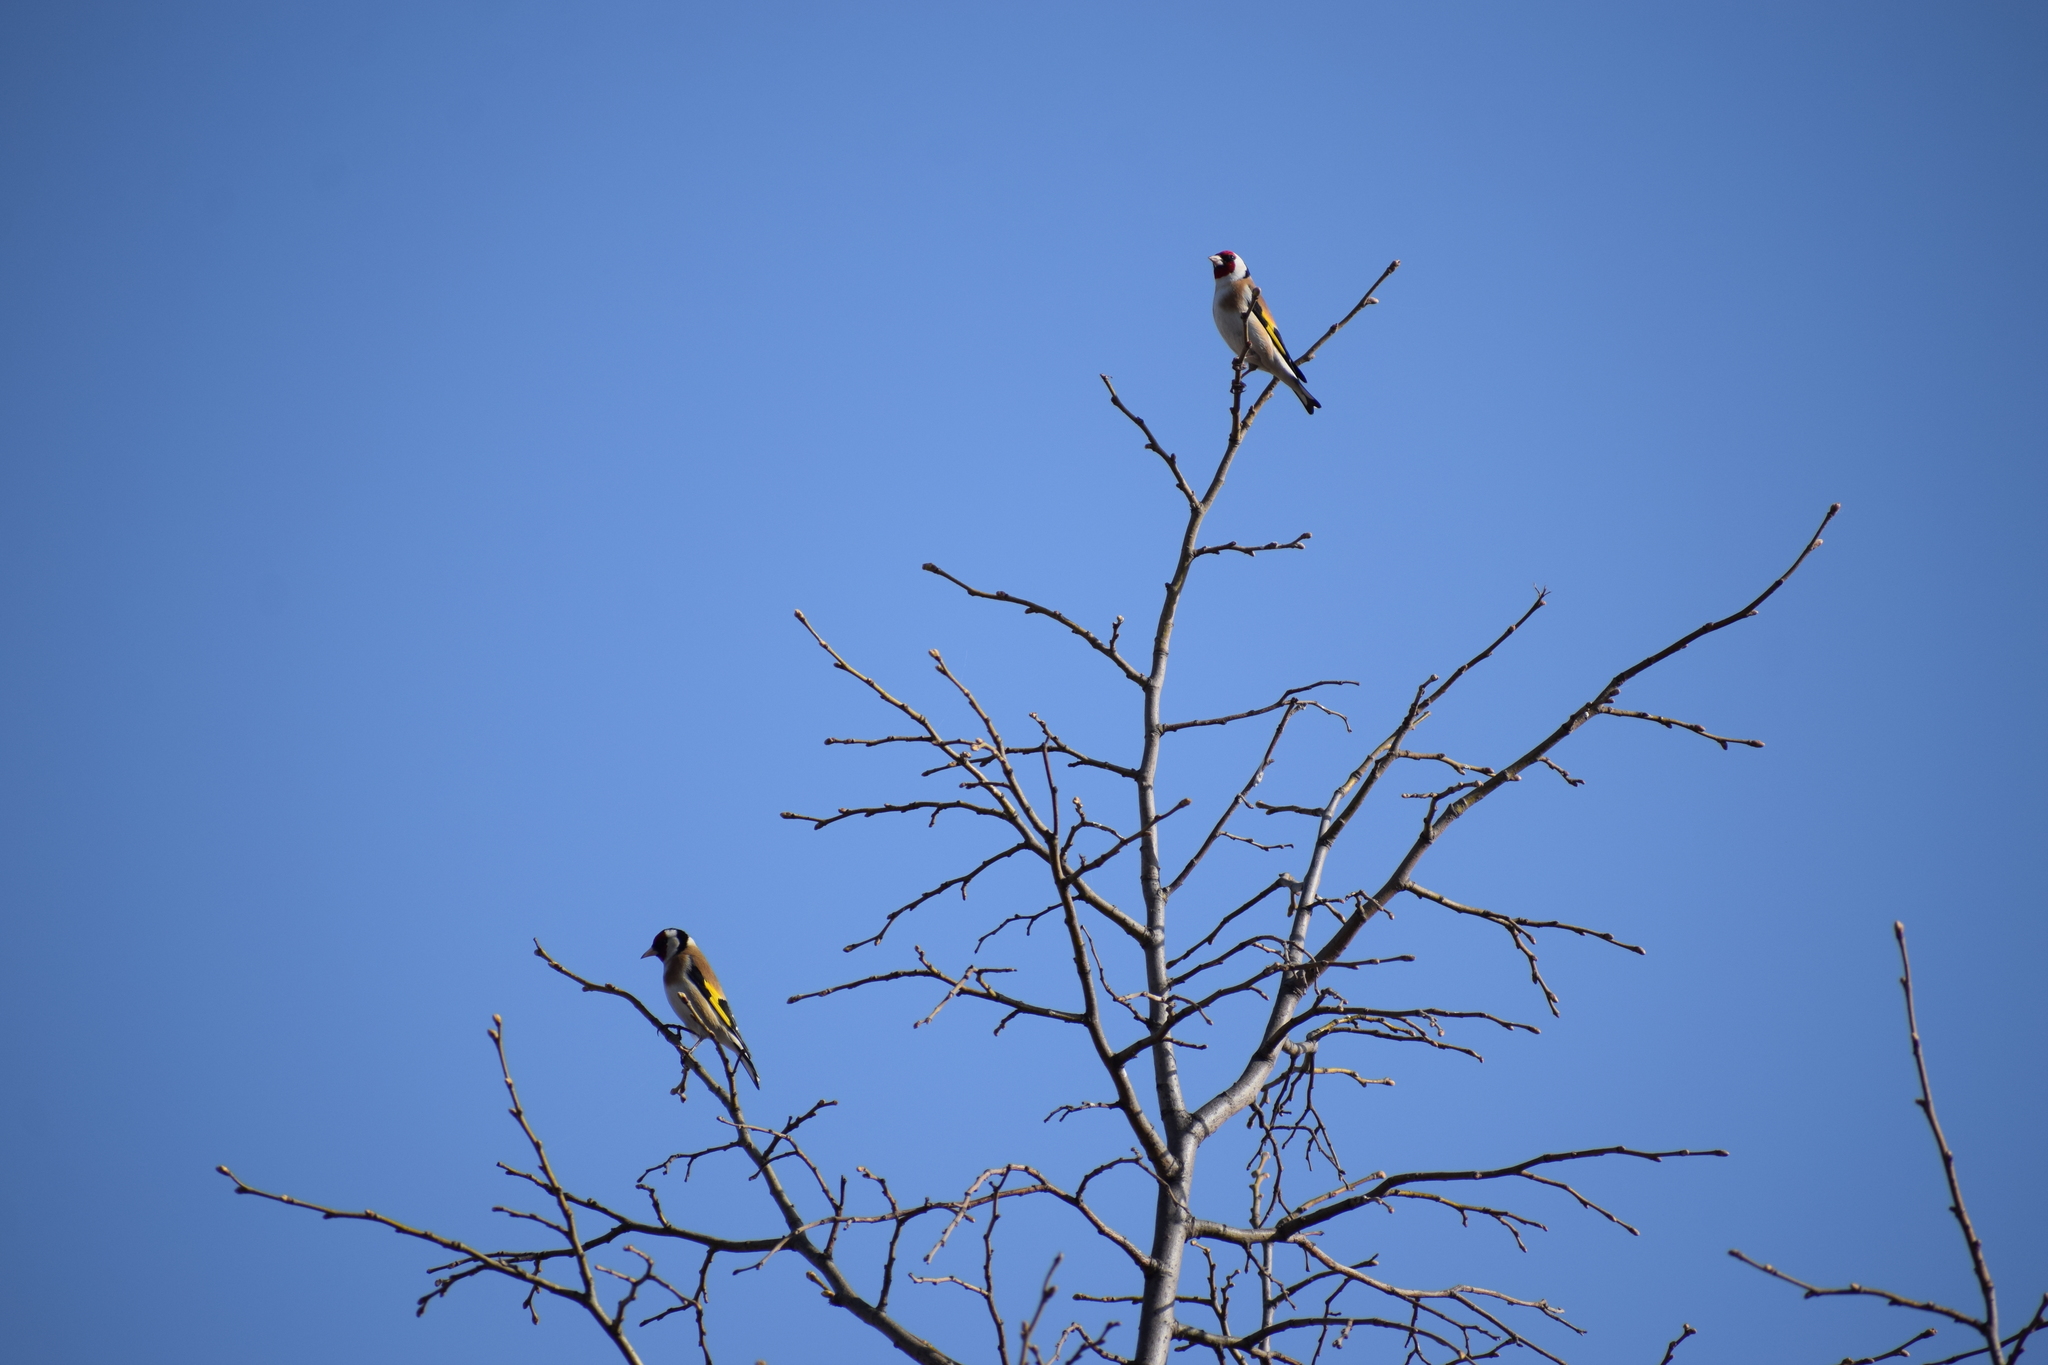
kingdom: Animalia
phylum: Chordata
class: Aves
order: Passeriformes
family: Fringillidae
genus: Carduelis
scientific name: Carduelis carduelis
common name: European goldfinch
